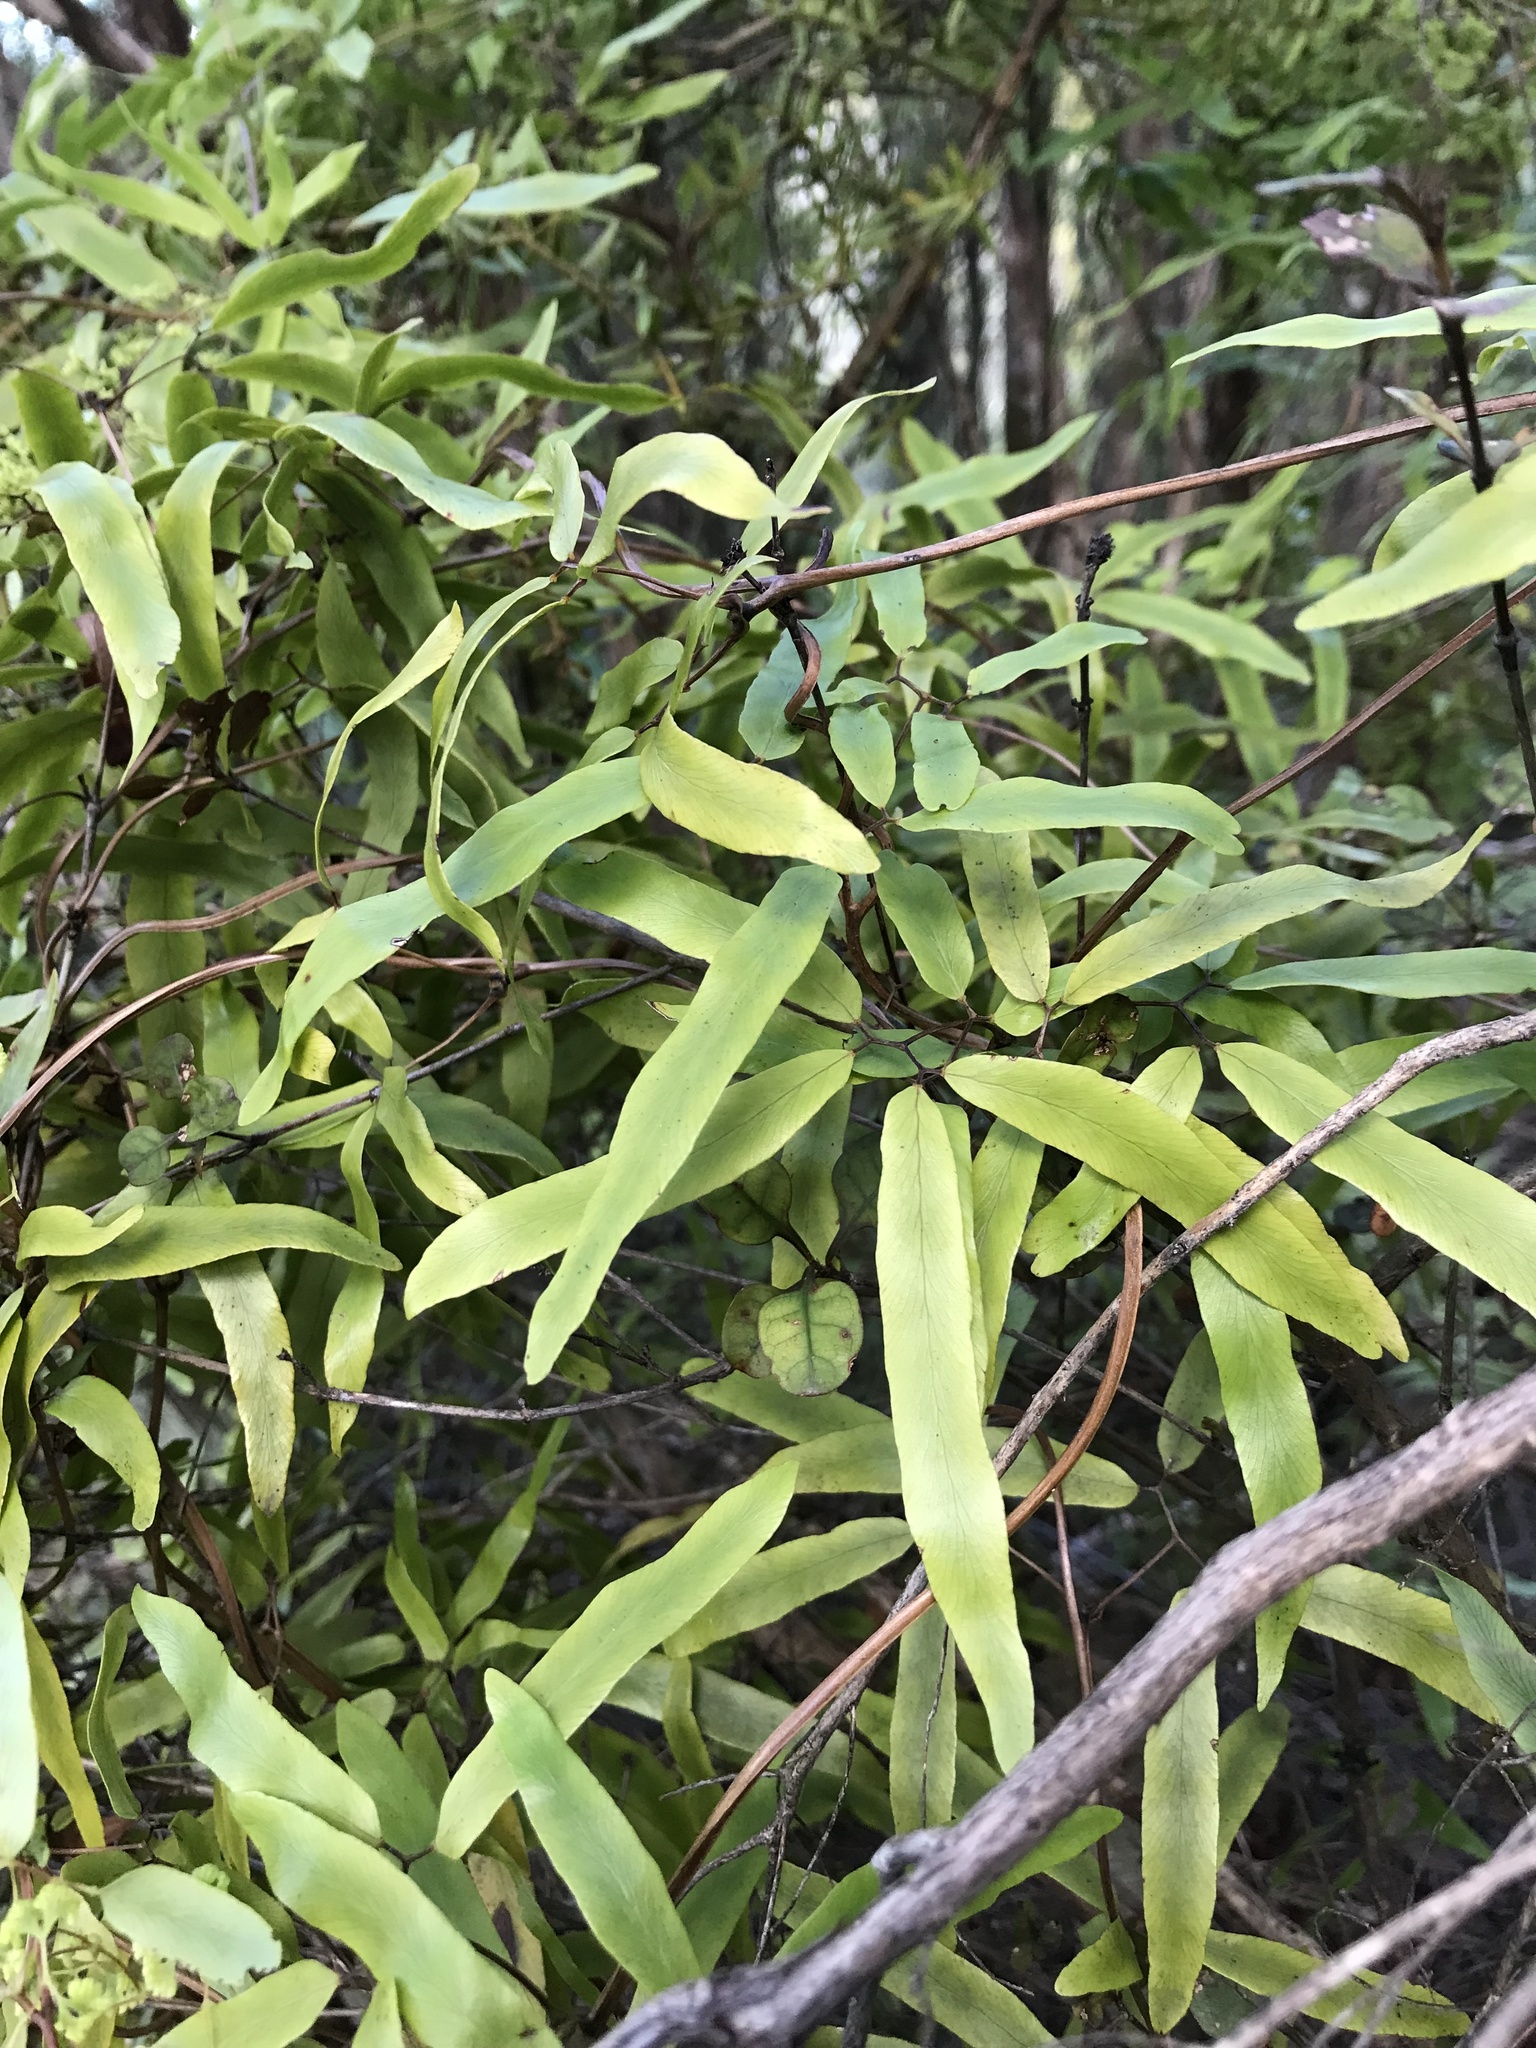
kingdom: Plantae
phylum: Tracheophyta
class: Polypodiopsida
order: Schizaeales
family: Lygodiaceae
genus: Lygodium
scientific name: Lygodium articulatum
